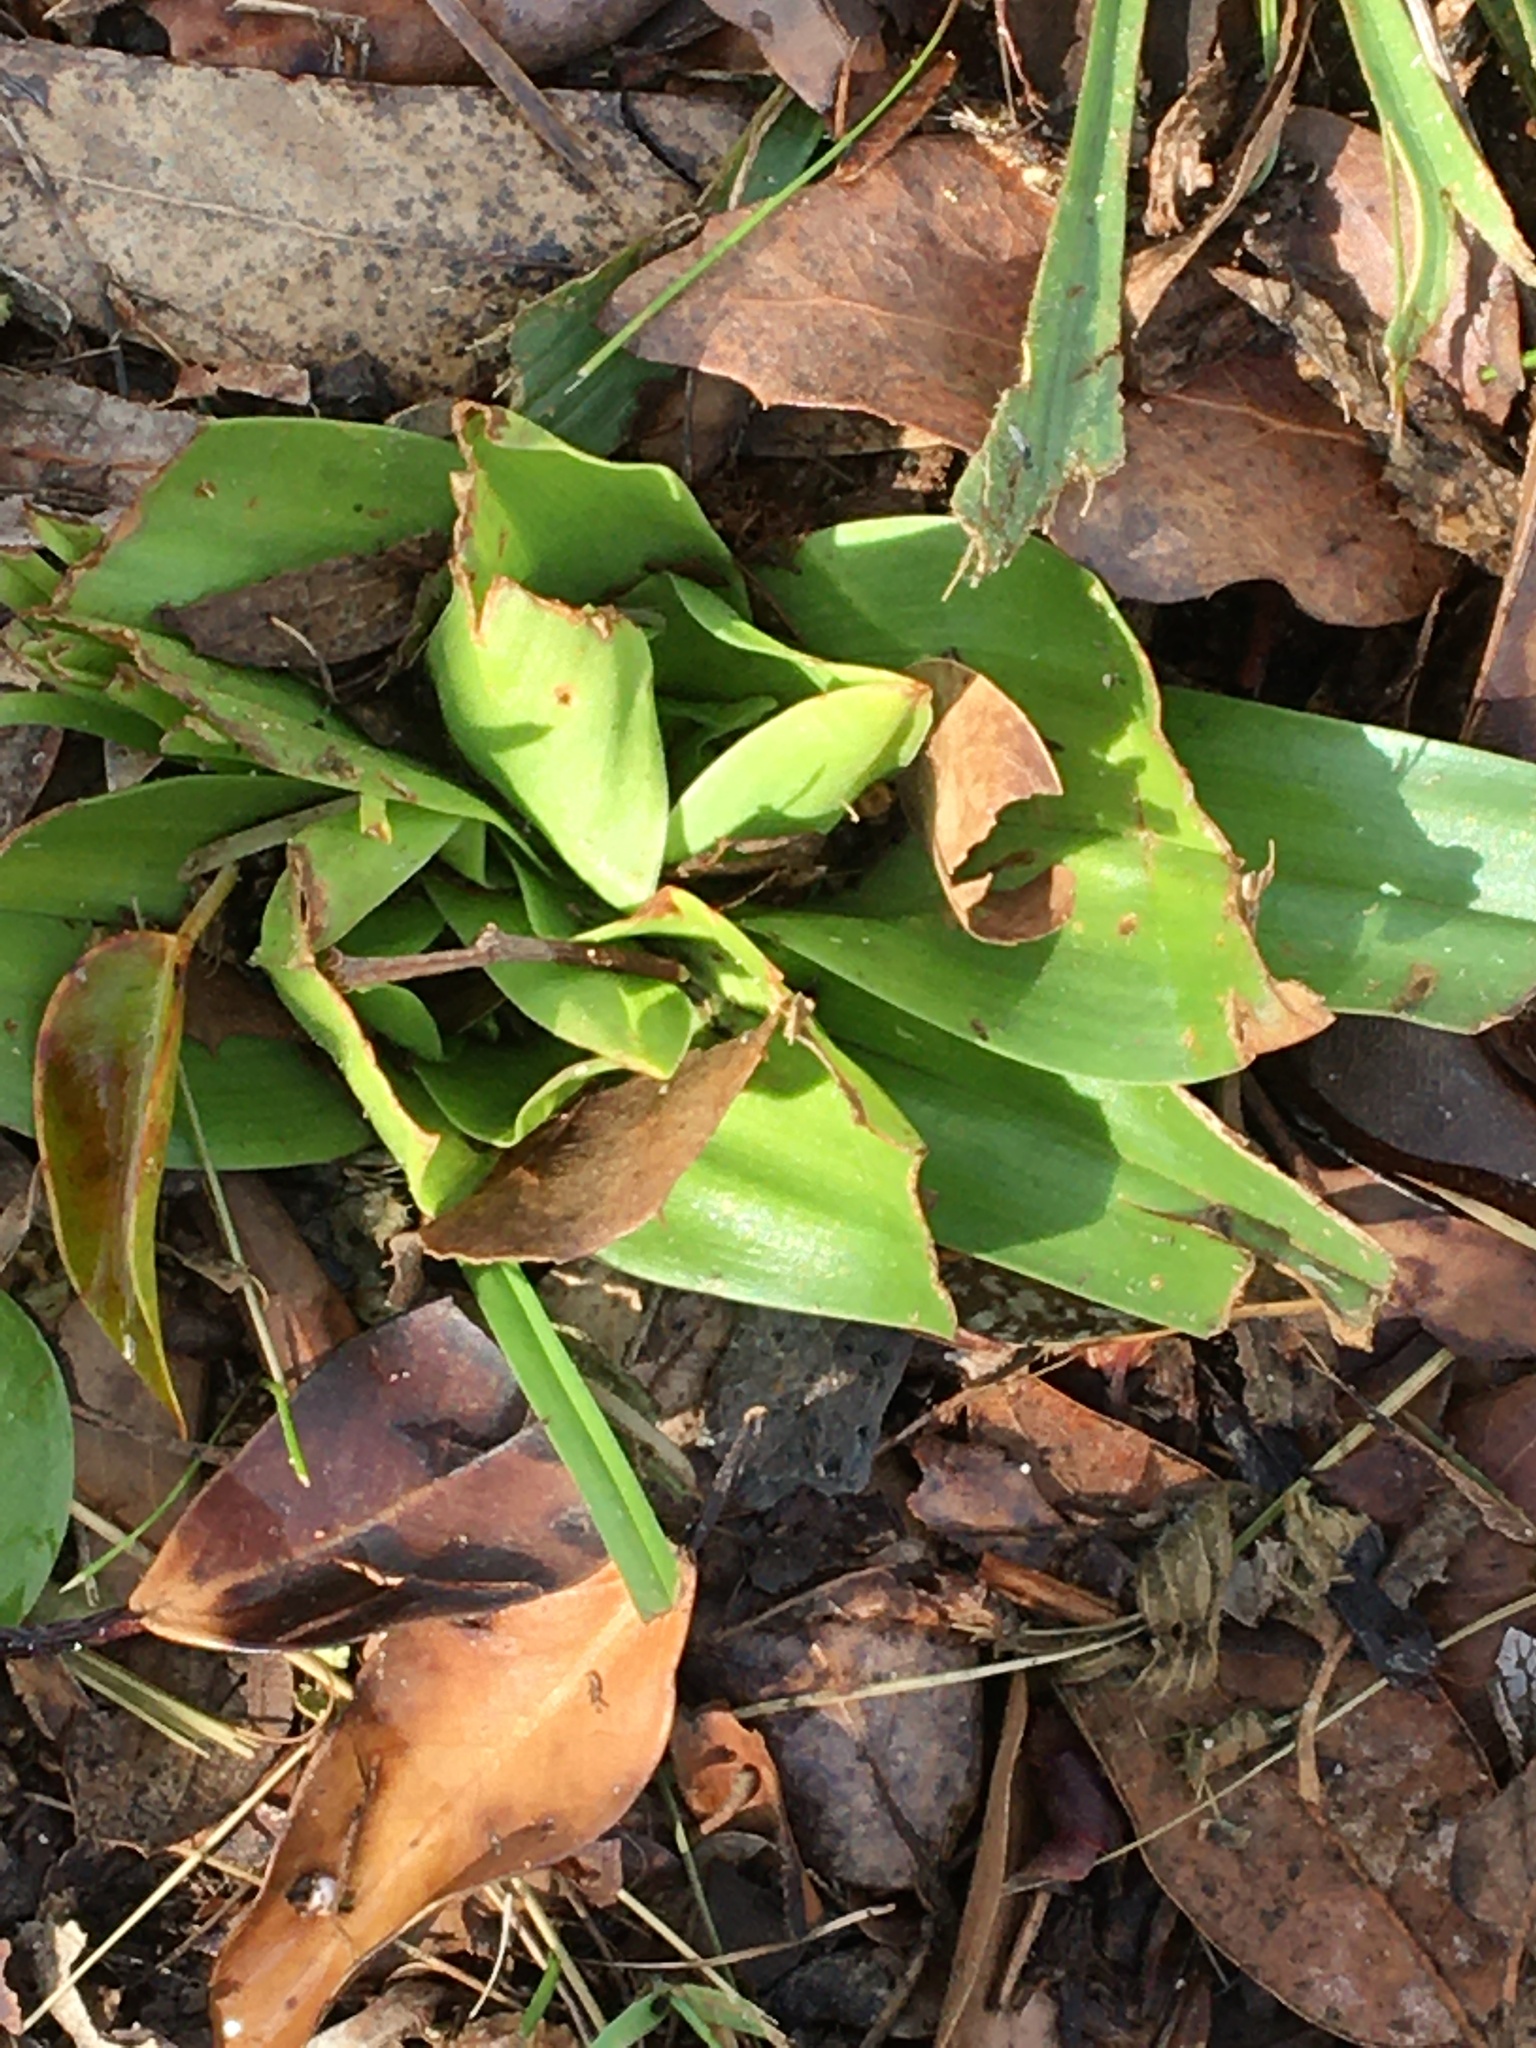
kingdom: Plantae
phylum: Tracheophyta
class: Liliopsida
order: Liliales
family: Colchicaceae
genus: Colchicum
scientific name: Colchicum eucomoides
